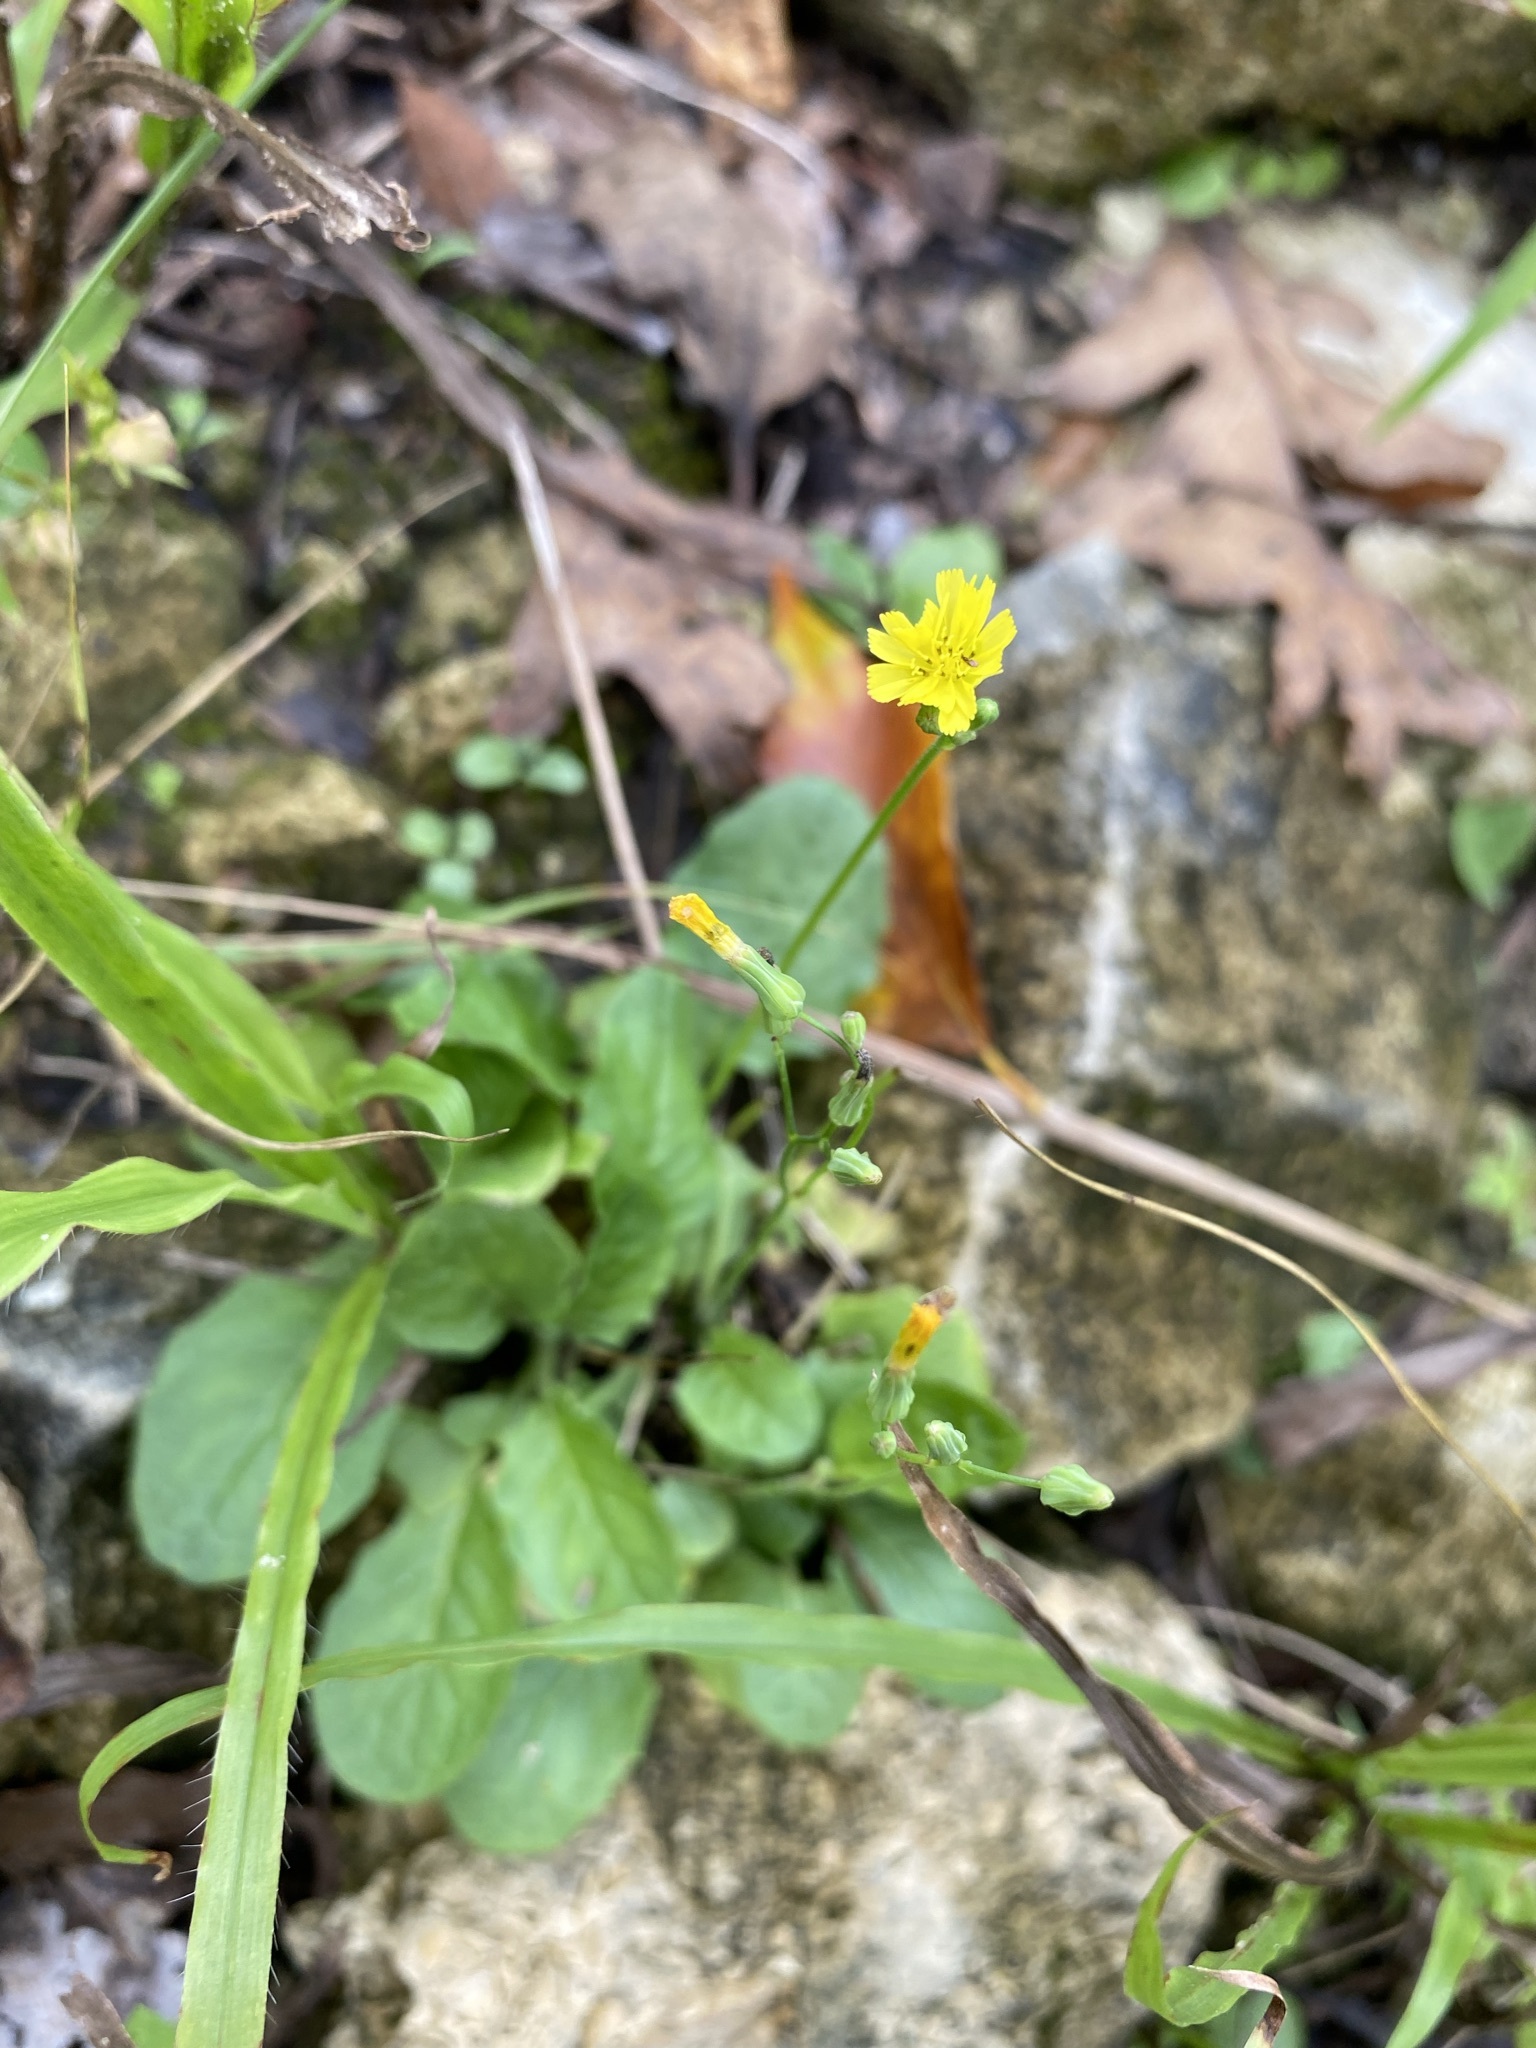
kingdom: Plantae
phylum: Tracheophyta
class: Magnoliopsida
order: Asterales
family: Asteraceae
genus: Youngia
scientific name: Youngia japonica
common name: Oriental false hawksbeard
